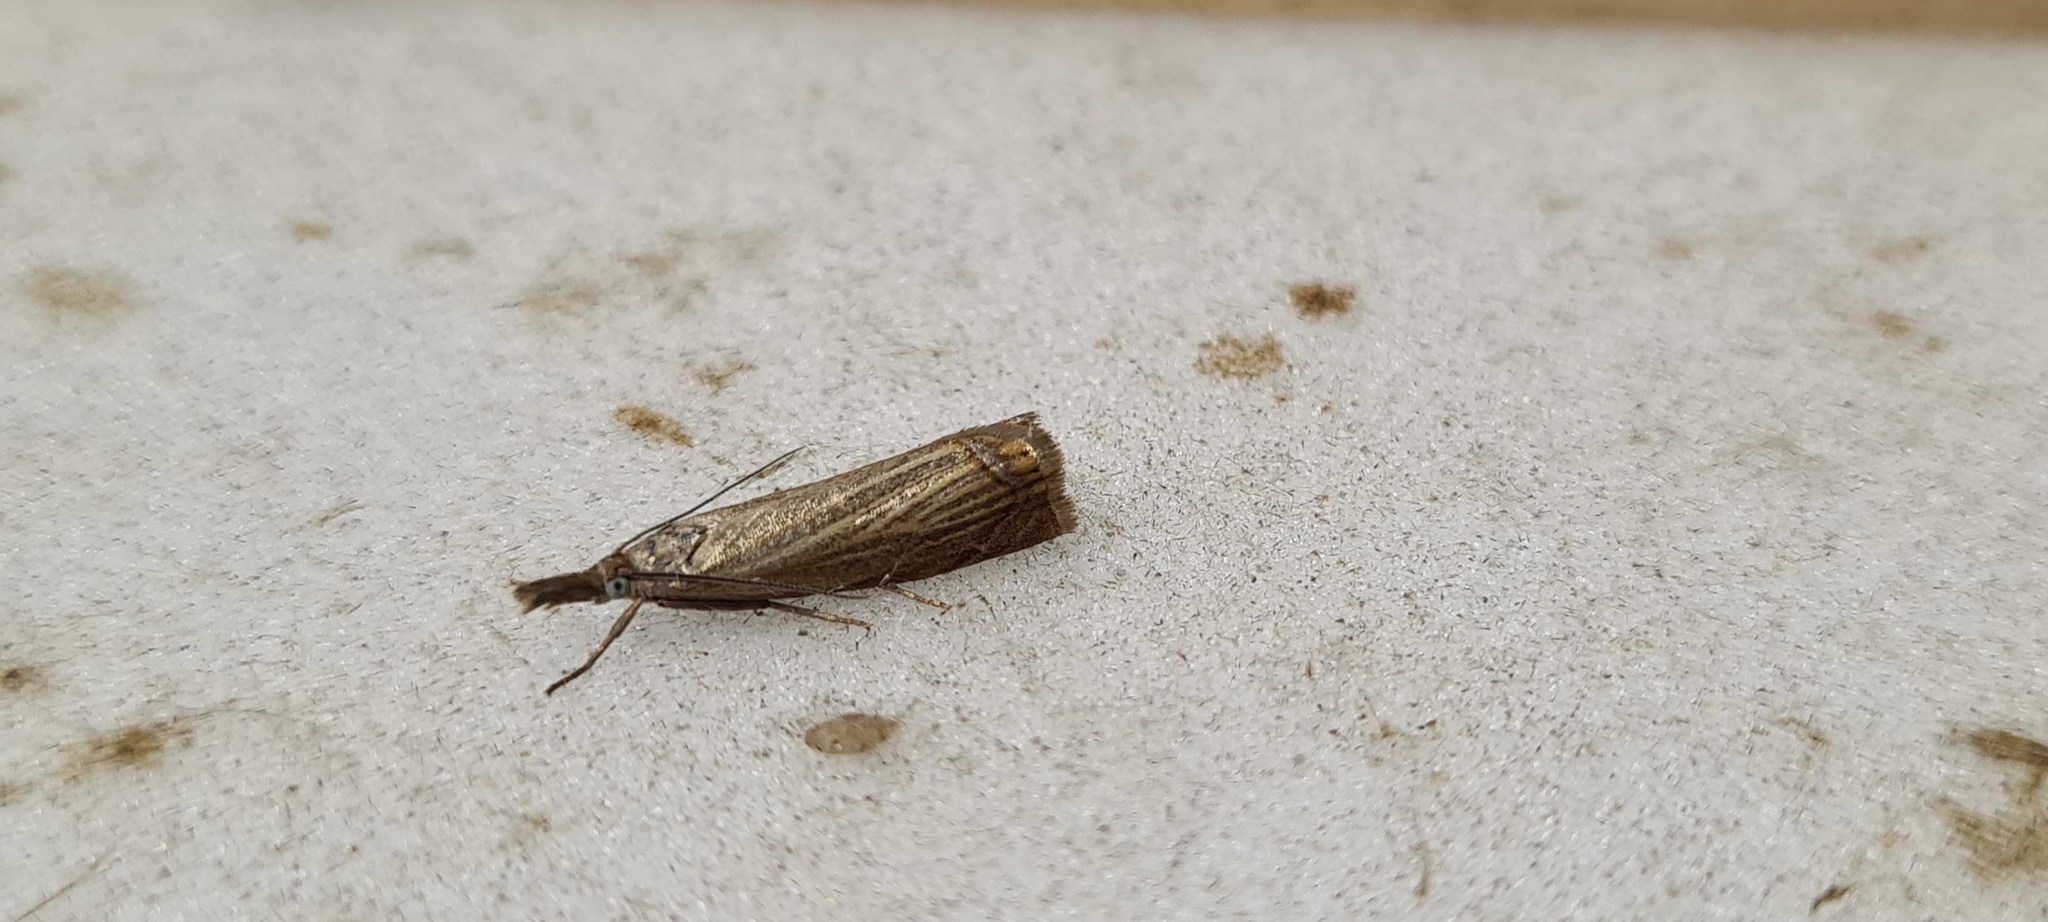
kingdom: Animalia
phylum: Arthropoda
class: Insecta
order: Lepidoptera
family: Crambidae
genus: Chrysoteuchia
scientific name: Chrysoteuchia culmella
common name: Garden grass-veneer
